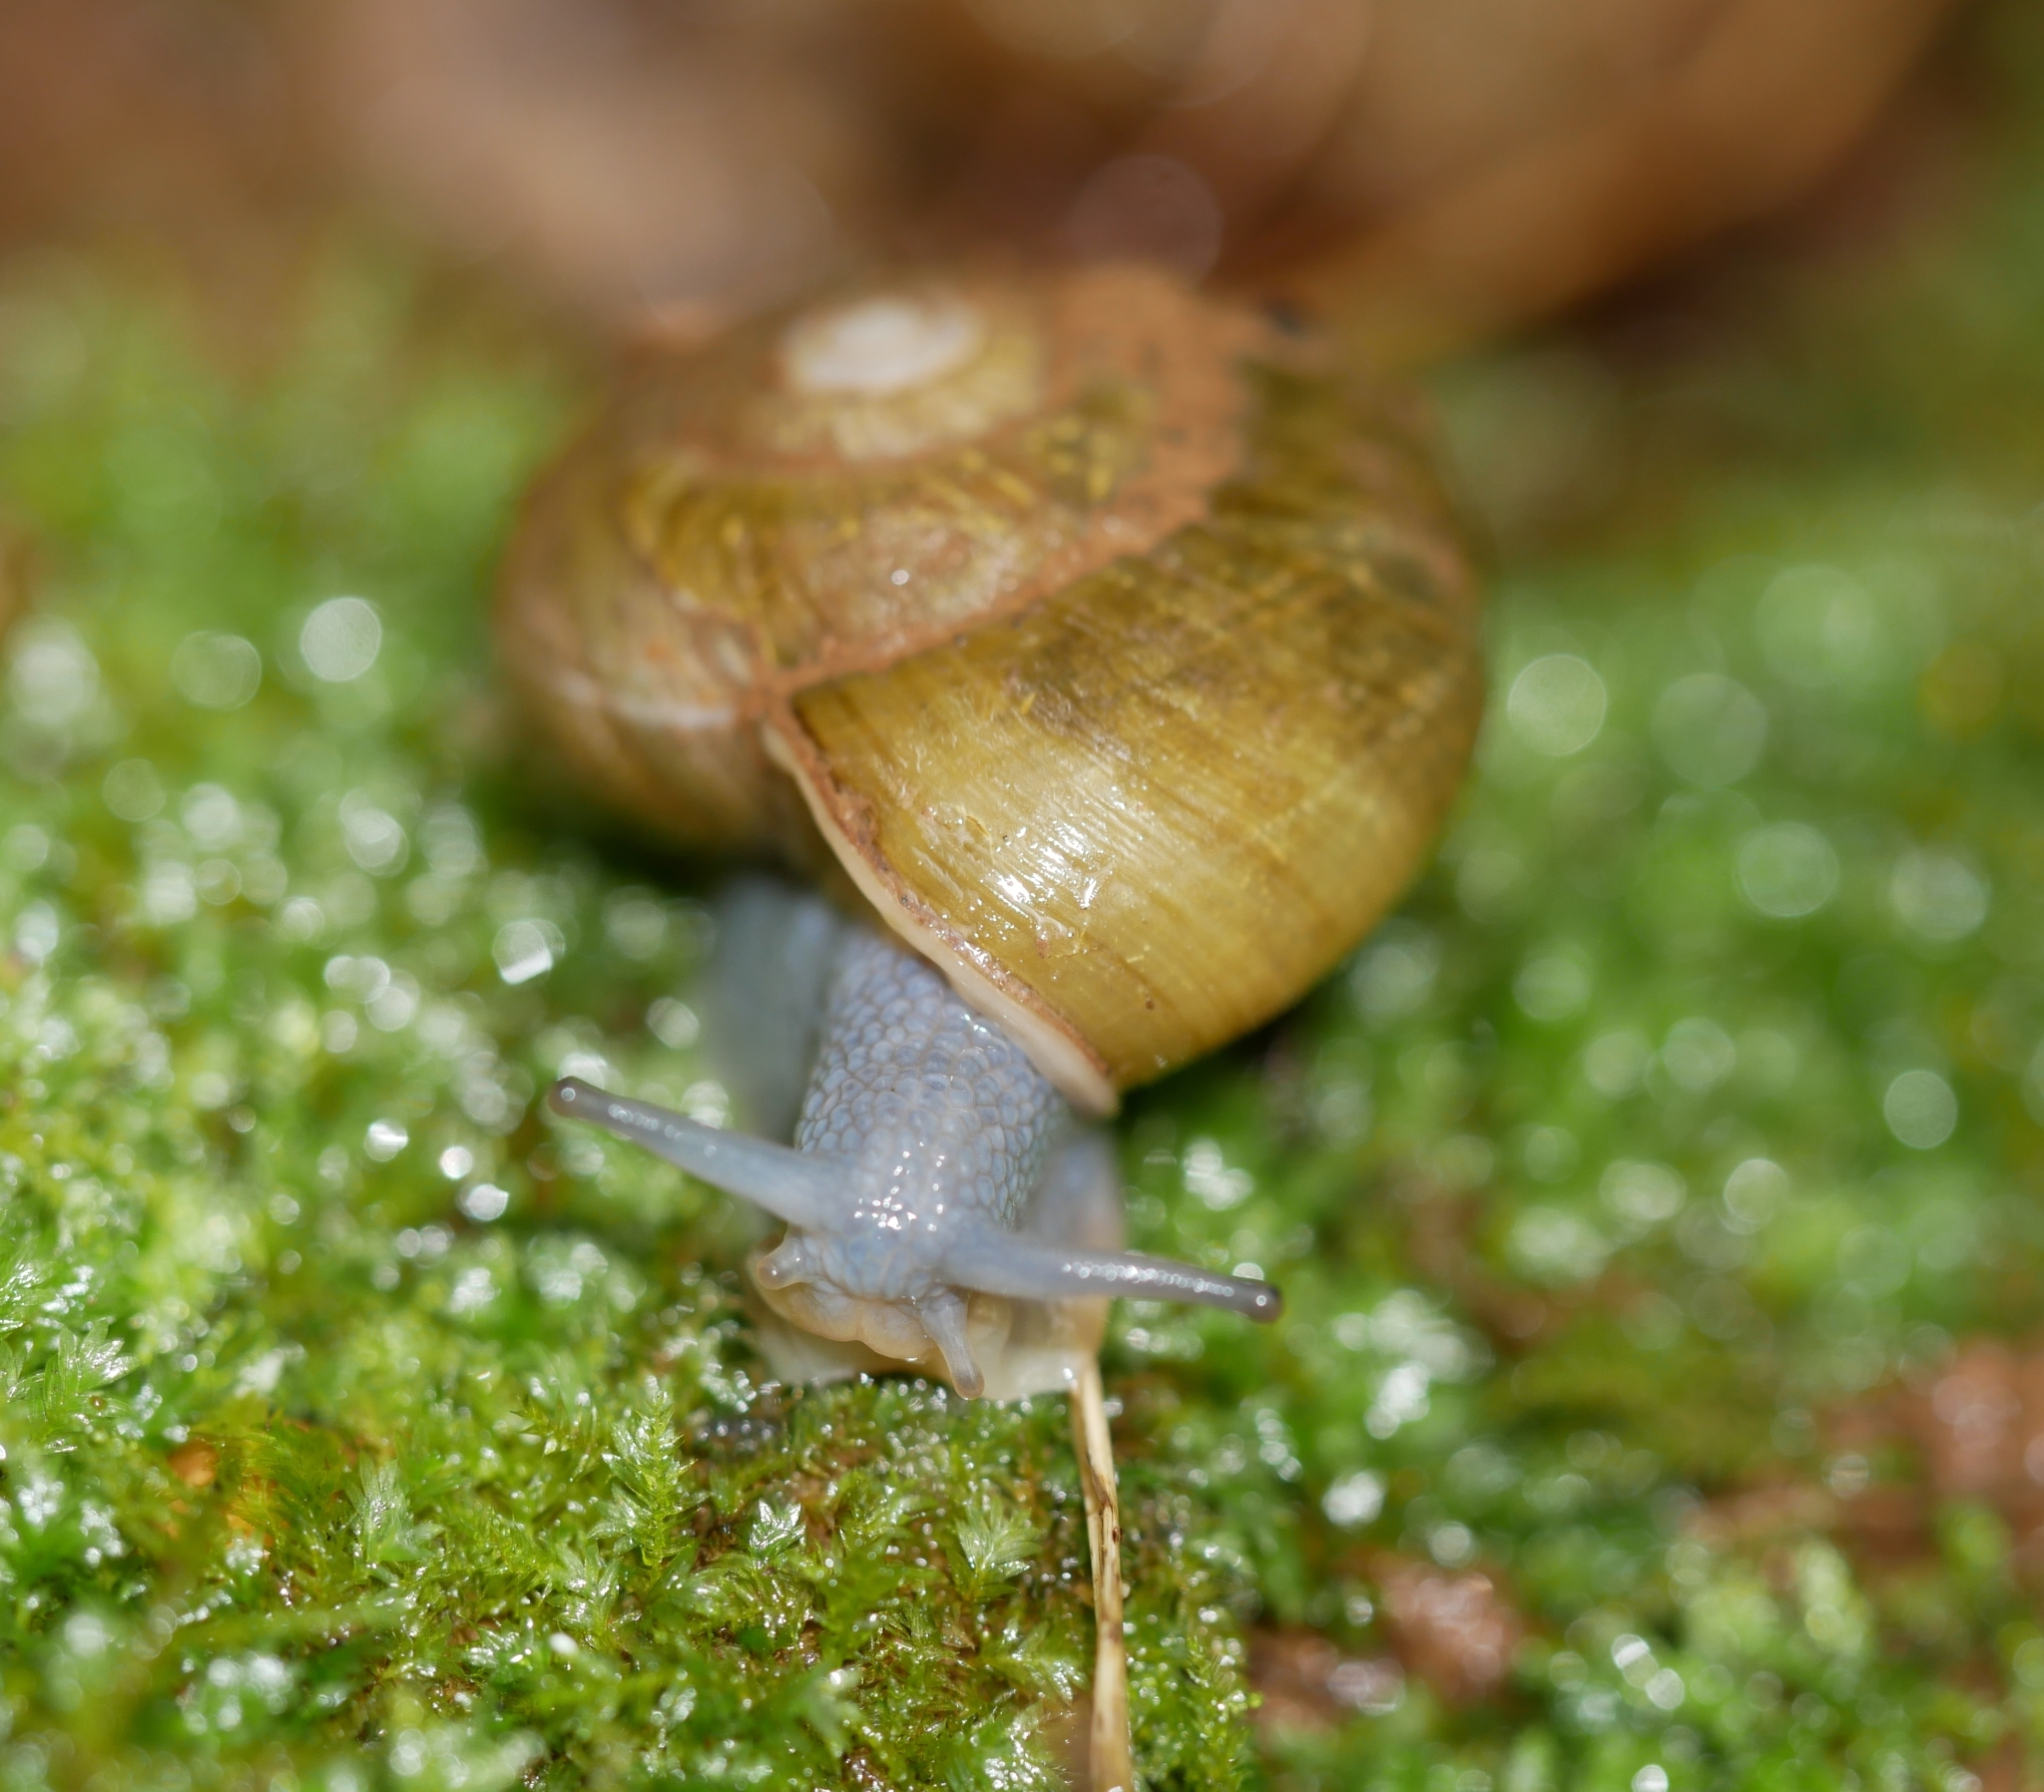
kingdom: Animalia
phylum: Mollusca
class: Gastropoda
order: Stylommatophora
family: Haplotrematidae
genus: Haplotrema
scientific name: Haplotrema vancouverense
